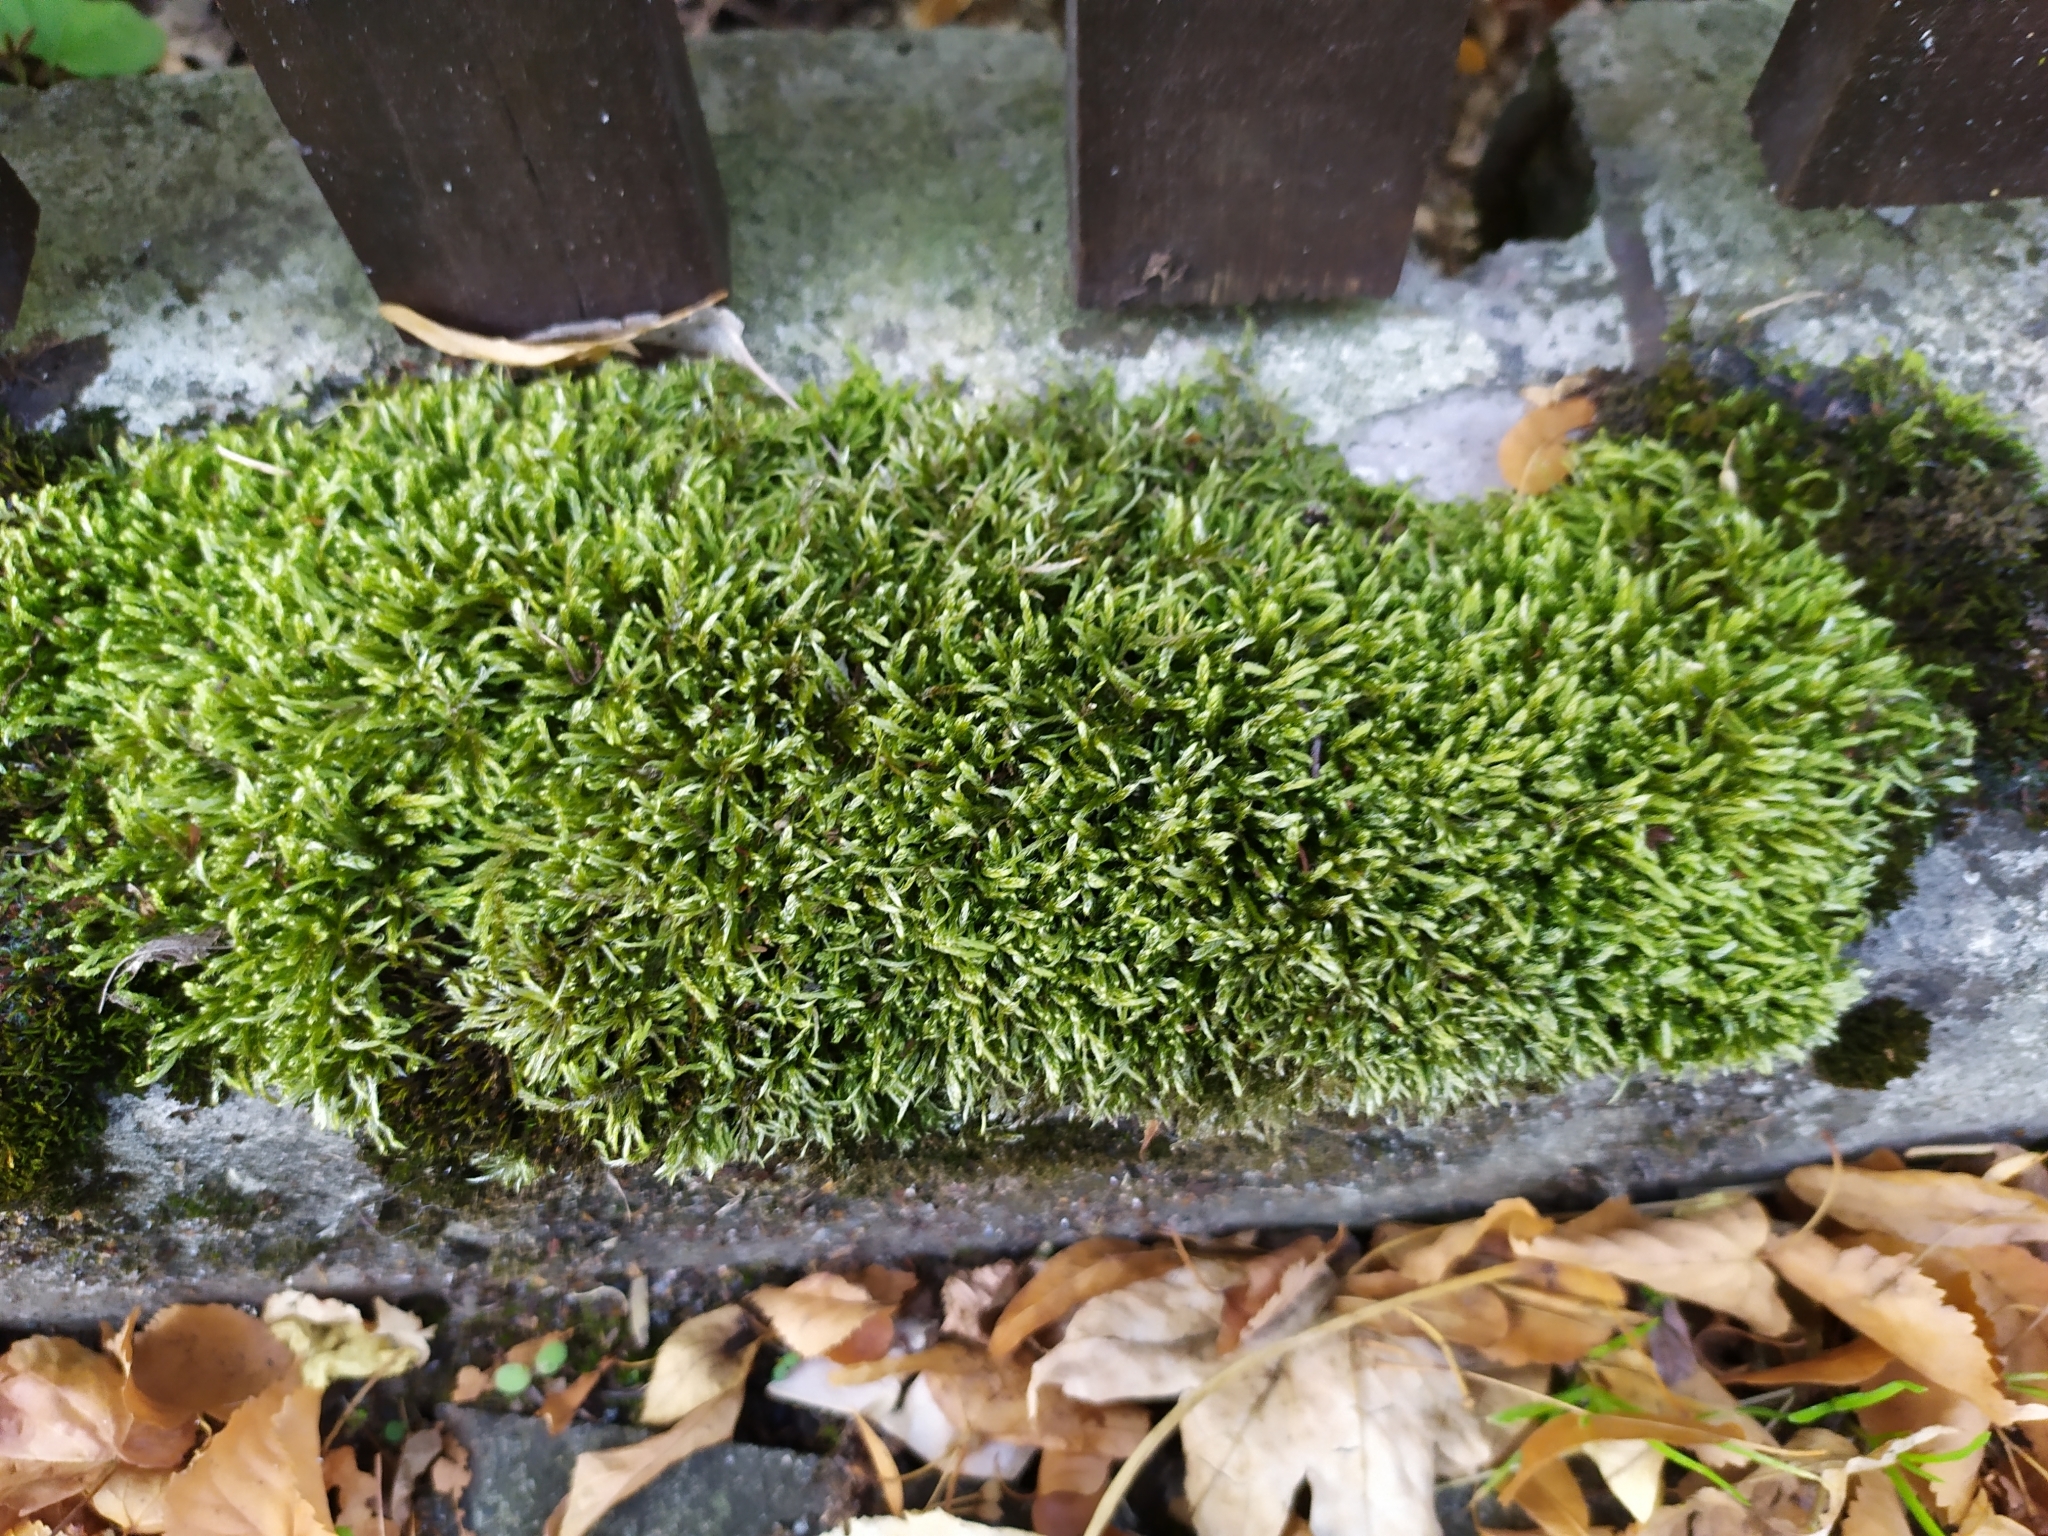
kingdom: Plantae
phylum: Bryophyta
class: Bryopsida
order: Hypnales
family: Hypnaceae
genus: Hypnum
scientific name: Hypnum cupressiforme
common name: Cypress-leaved plait-moss
